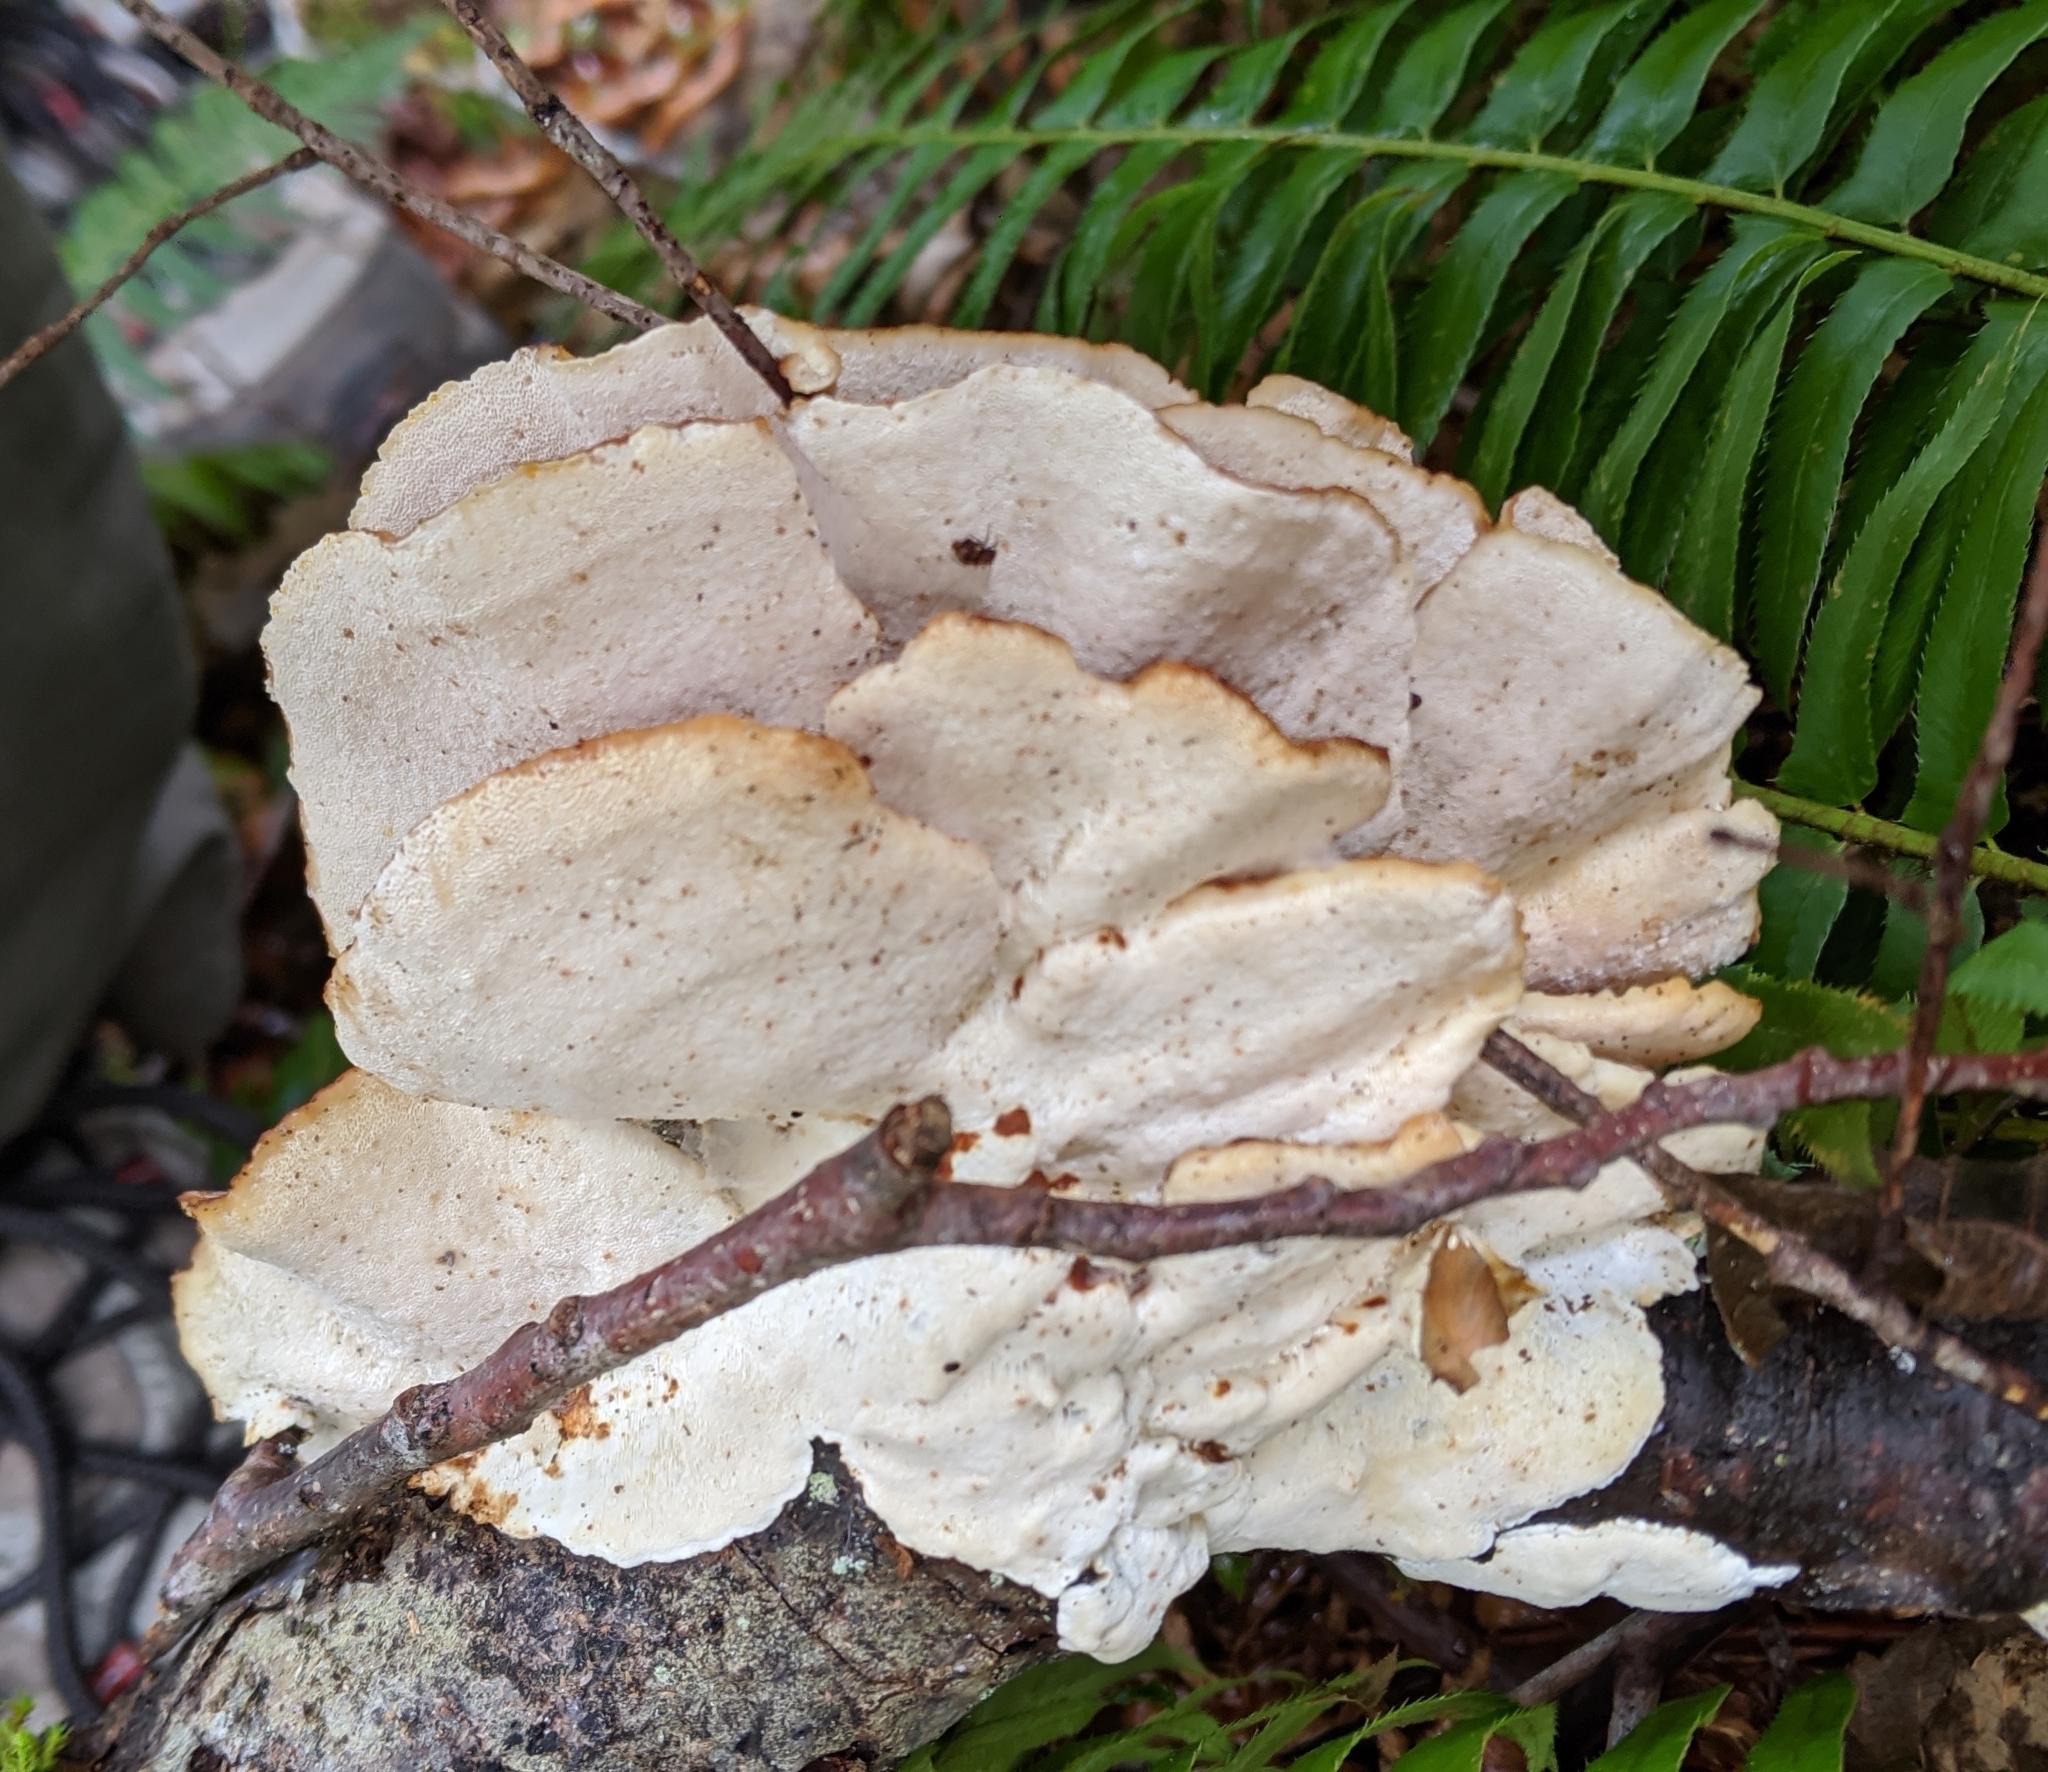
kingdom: Fungi
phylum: Basidiomycota
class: Agaricomycetes
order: Polyporales
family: Polyporaceae
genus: Trametes
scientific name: Trametes ochracea
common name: Ochre bracket
